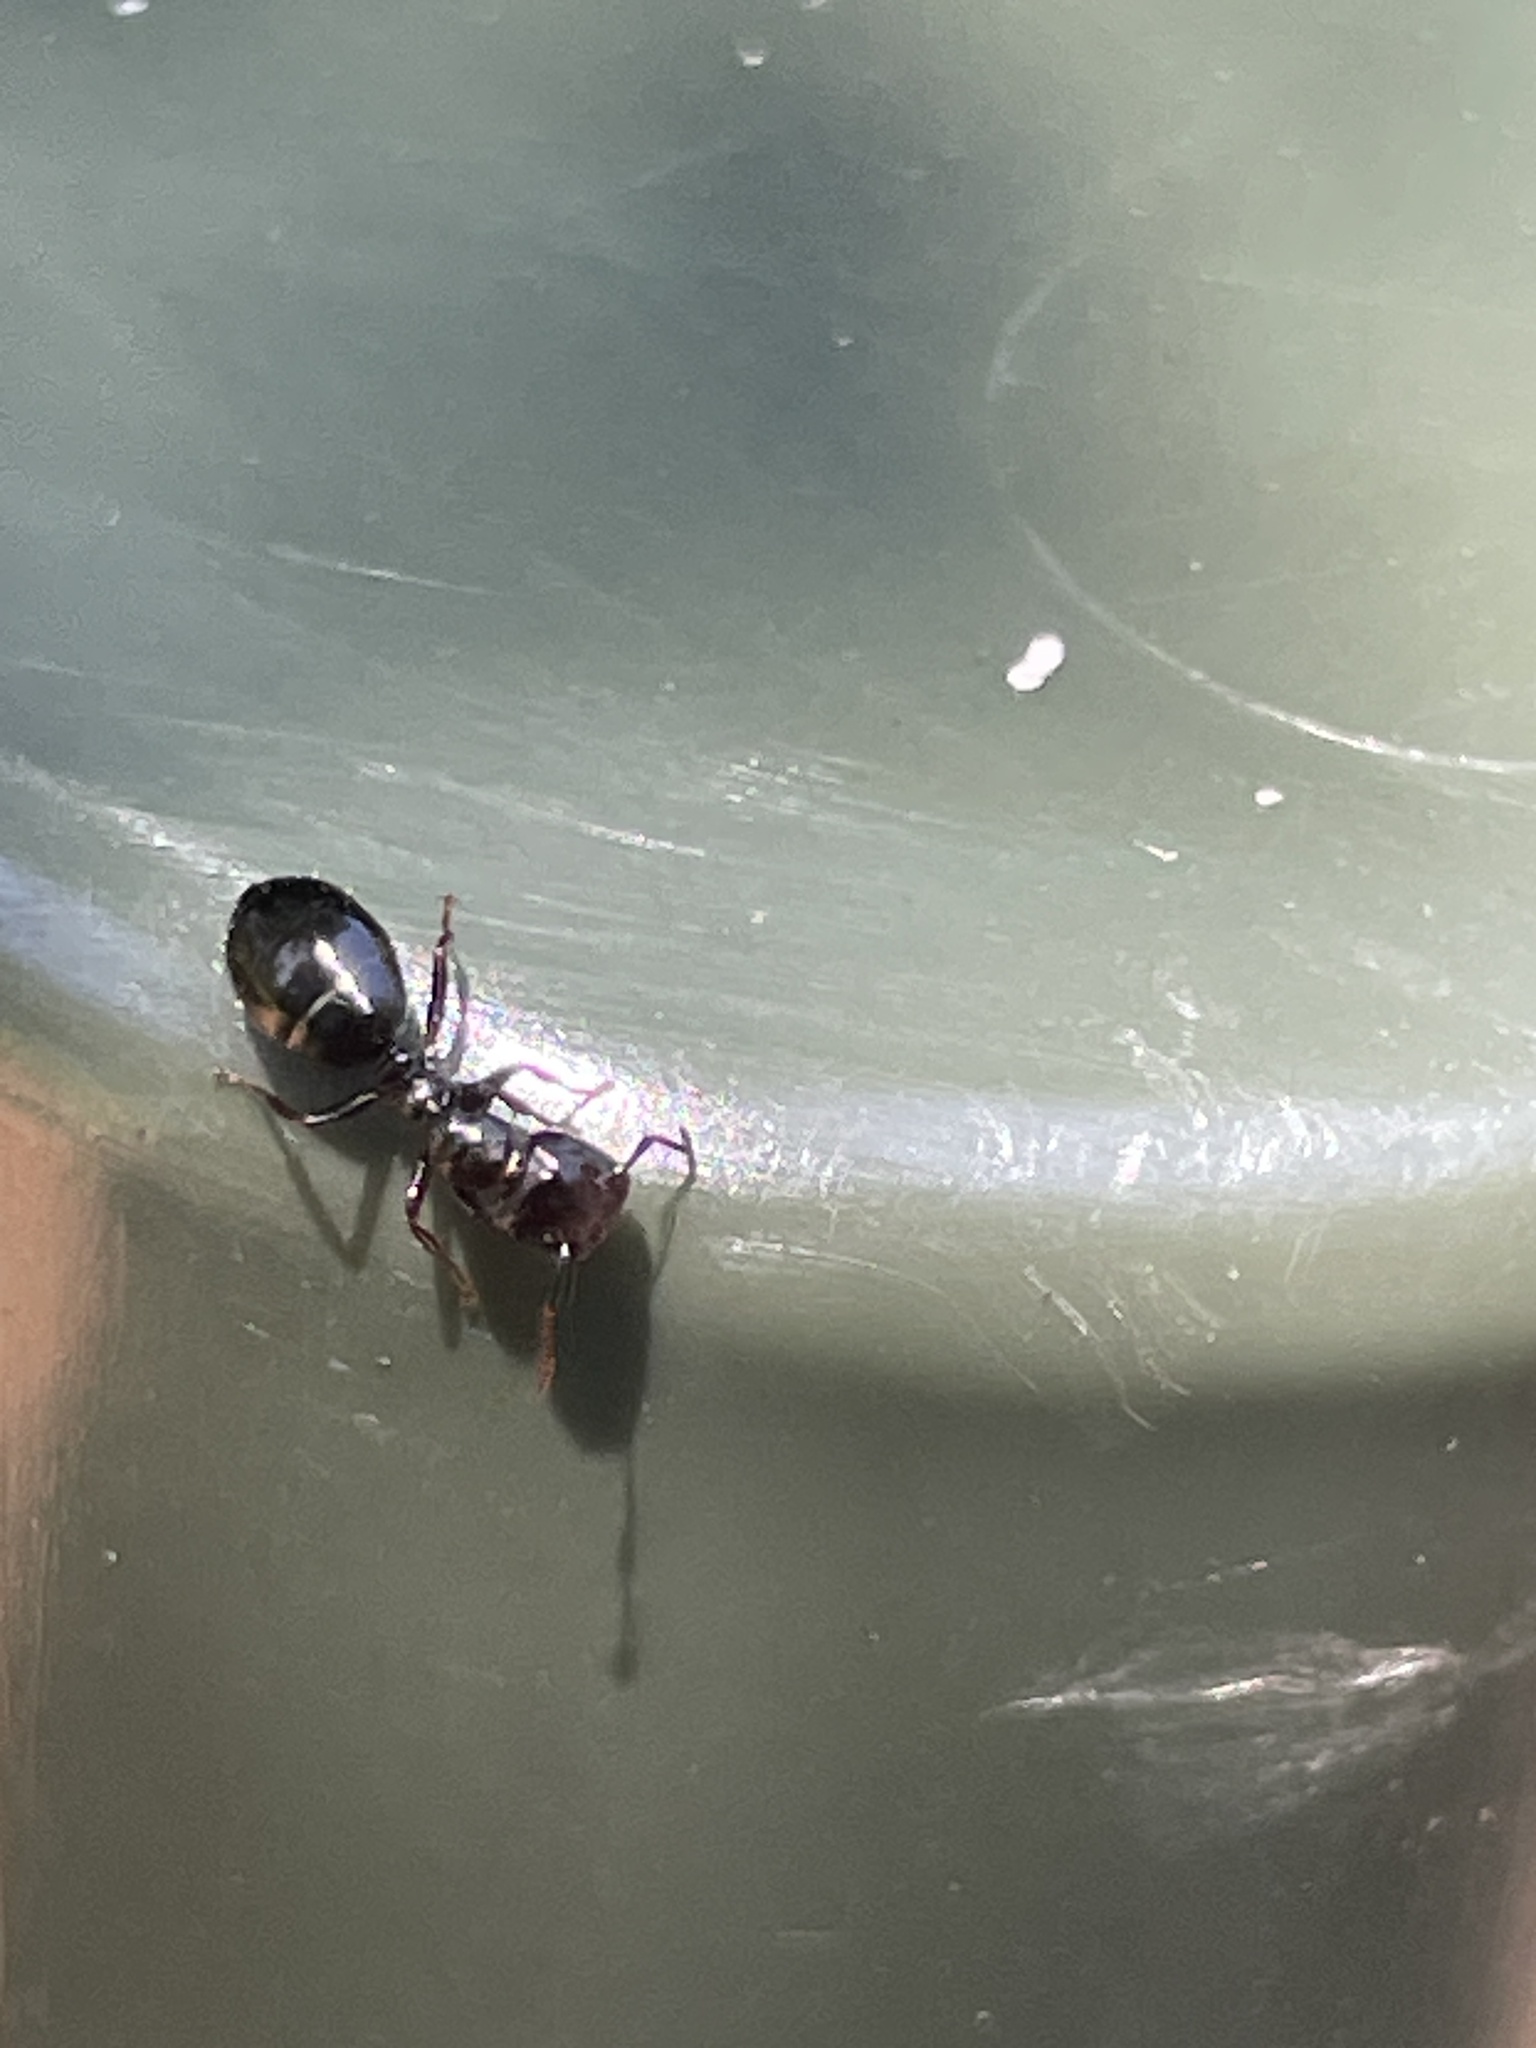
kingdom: Animalia
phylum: Arthropoda
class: Insecta
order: Hymenoptera
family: Formicidae
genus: Colobopsis
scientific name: Colobopsis gasseri
